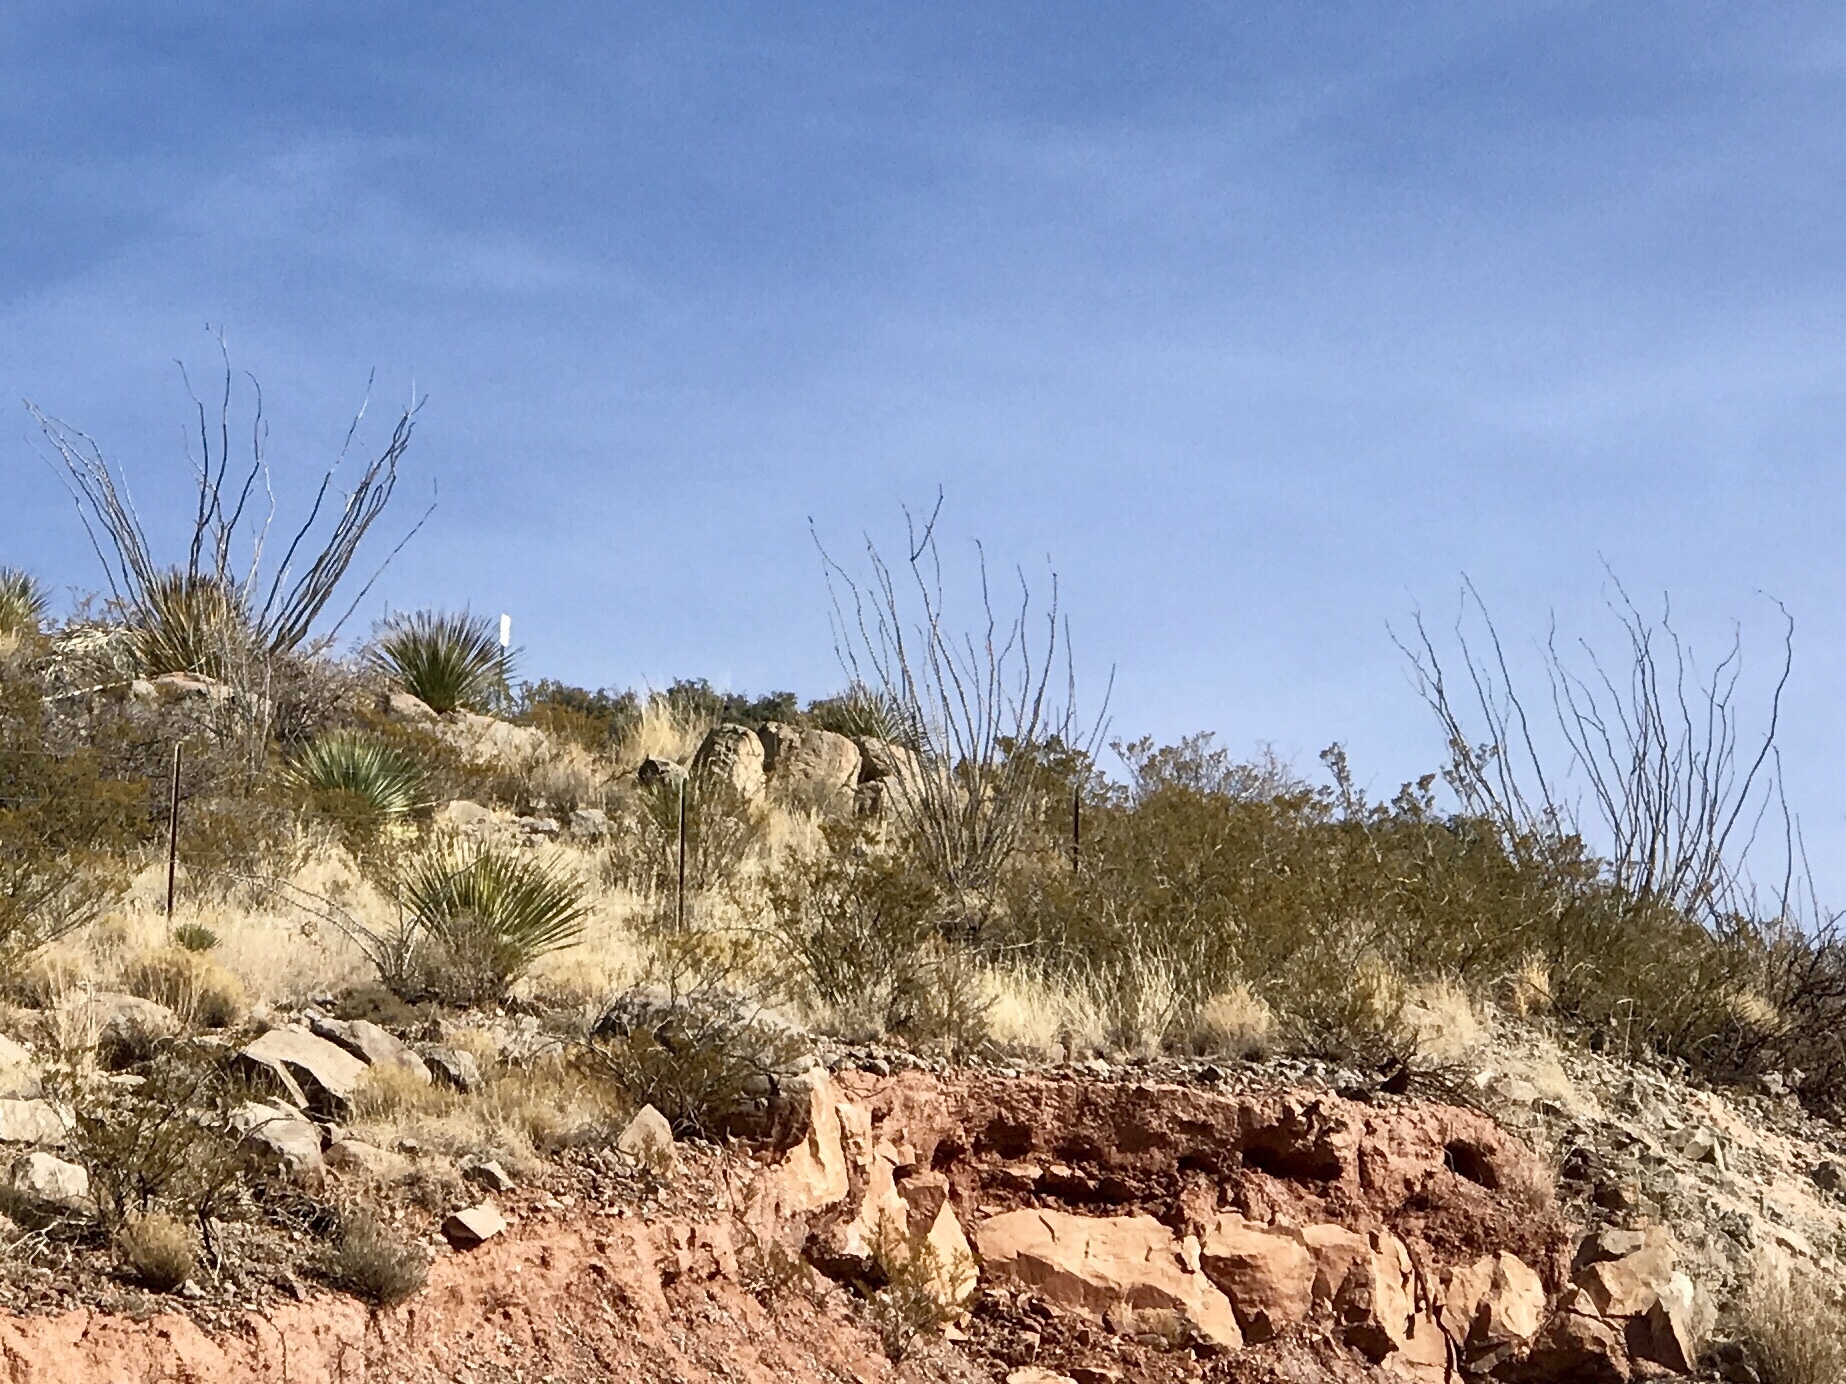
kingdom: Plantae
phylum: Tracheophyta
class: Magnoliopsida
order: Ericales
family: Fouquieriaceae
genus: Fouquieria
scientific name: Fouquieria splendens
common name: Vine-cactus
